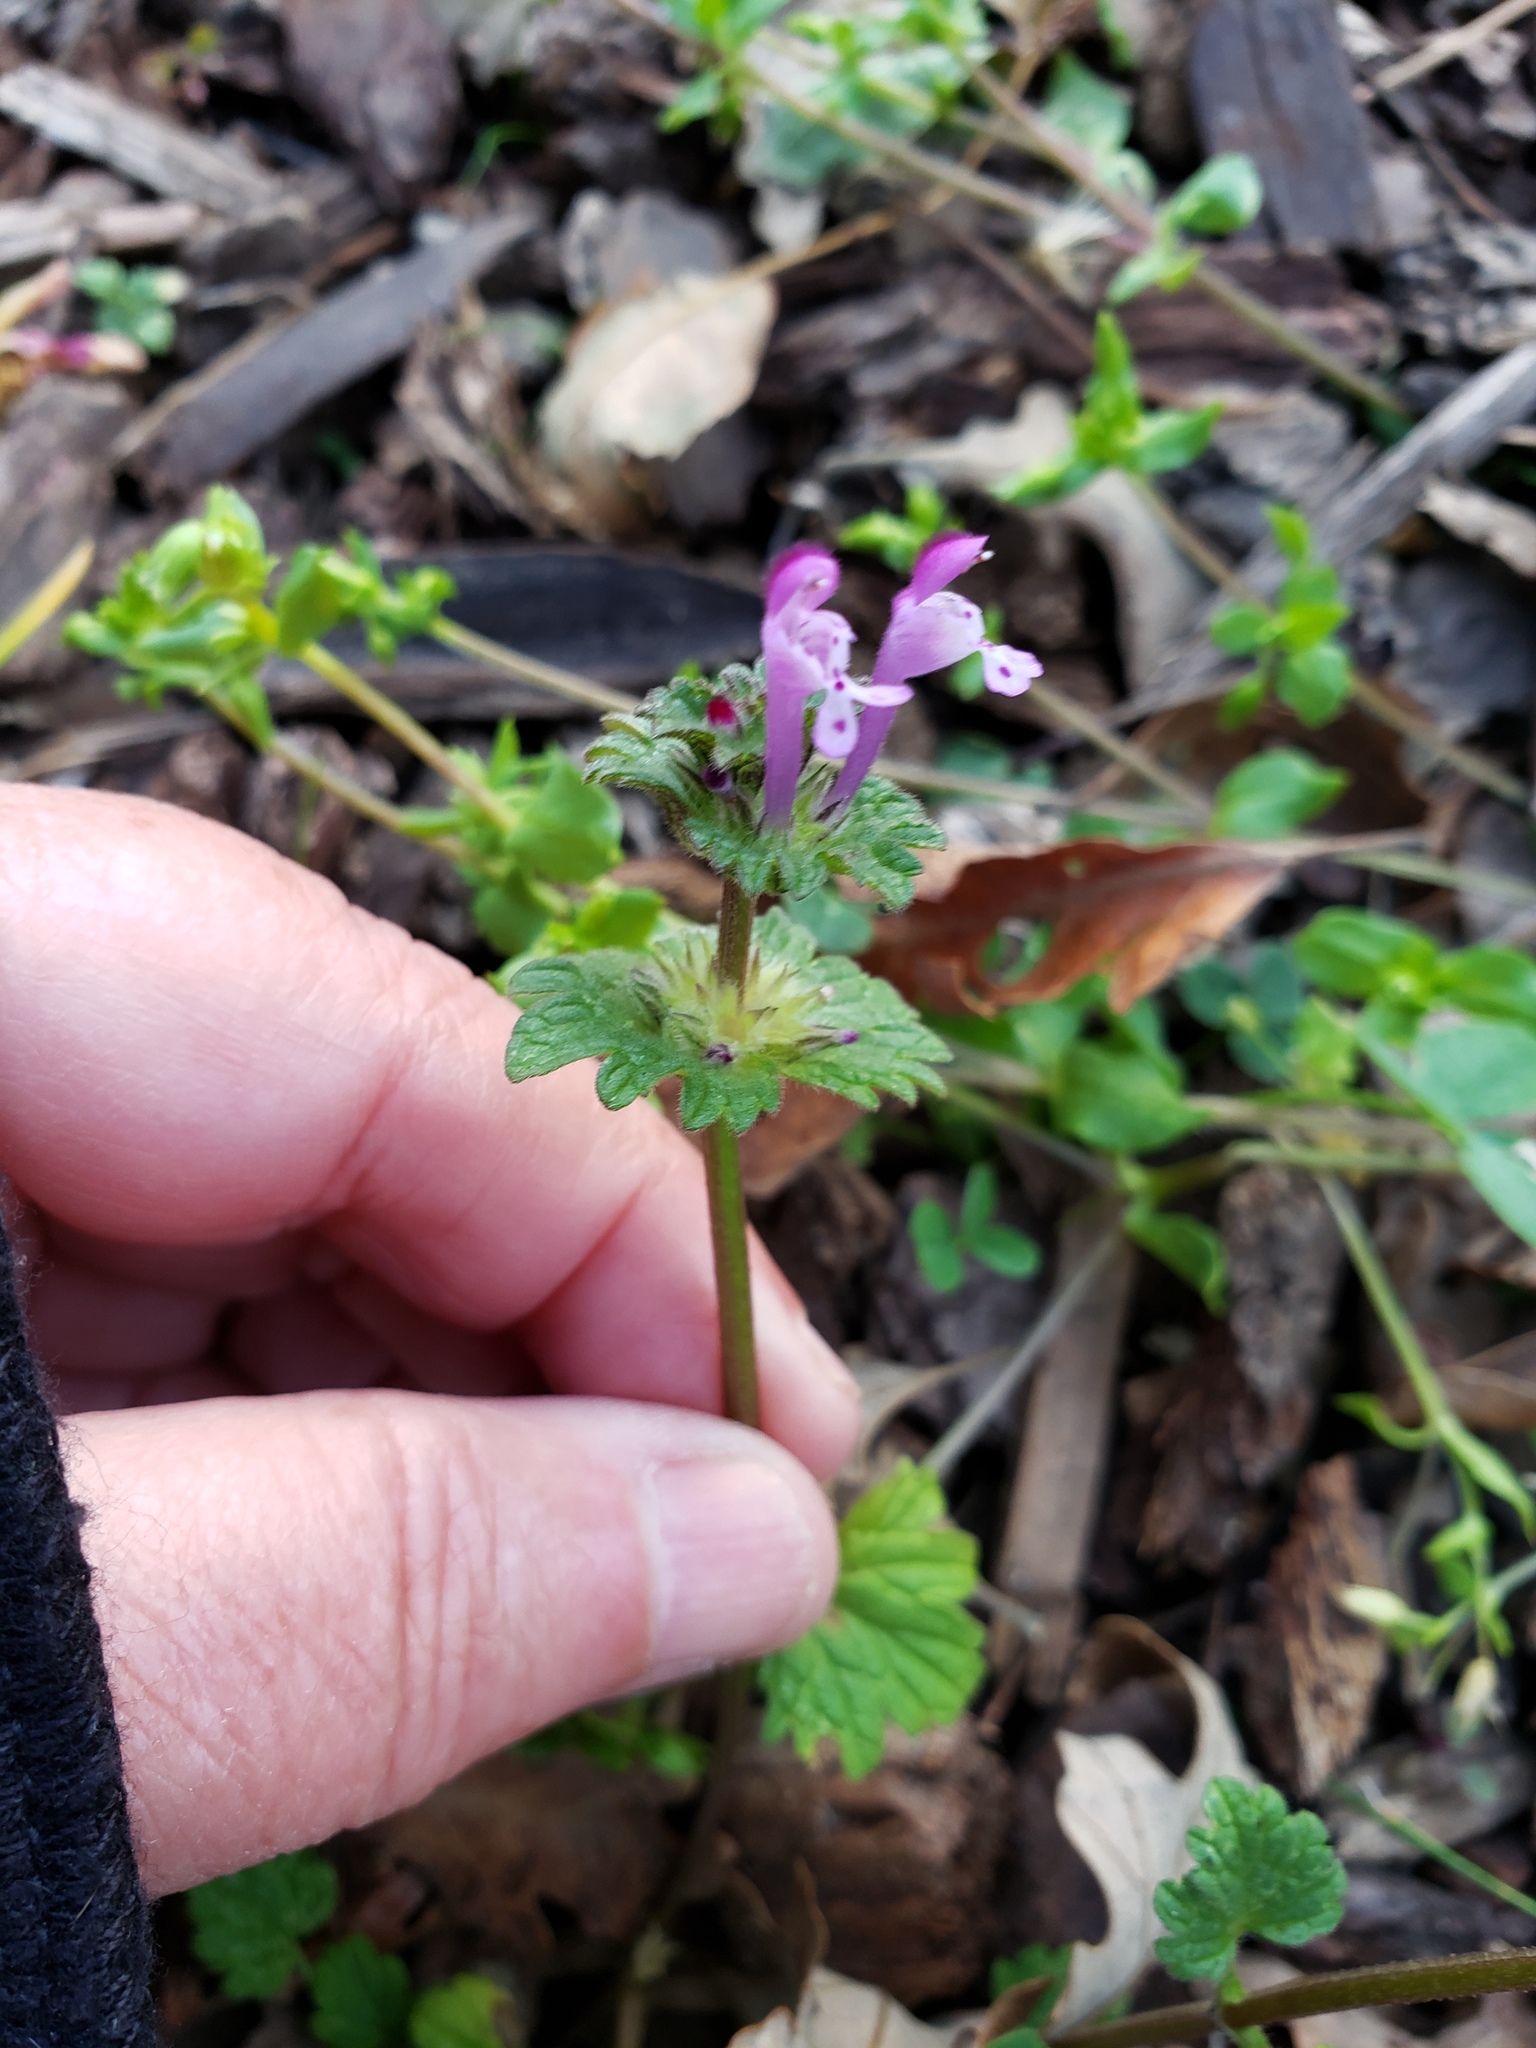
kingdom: Plantae
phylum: Tracheophyta
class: Magnoliopsida
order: Lamiales
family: Lamiaceae
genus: Lamium
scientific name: Lamium amplexicaule
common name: Henbit dead-nettle
